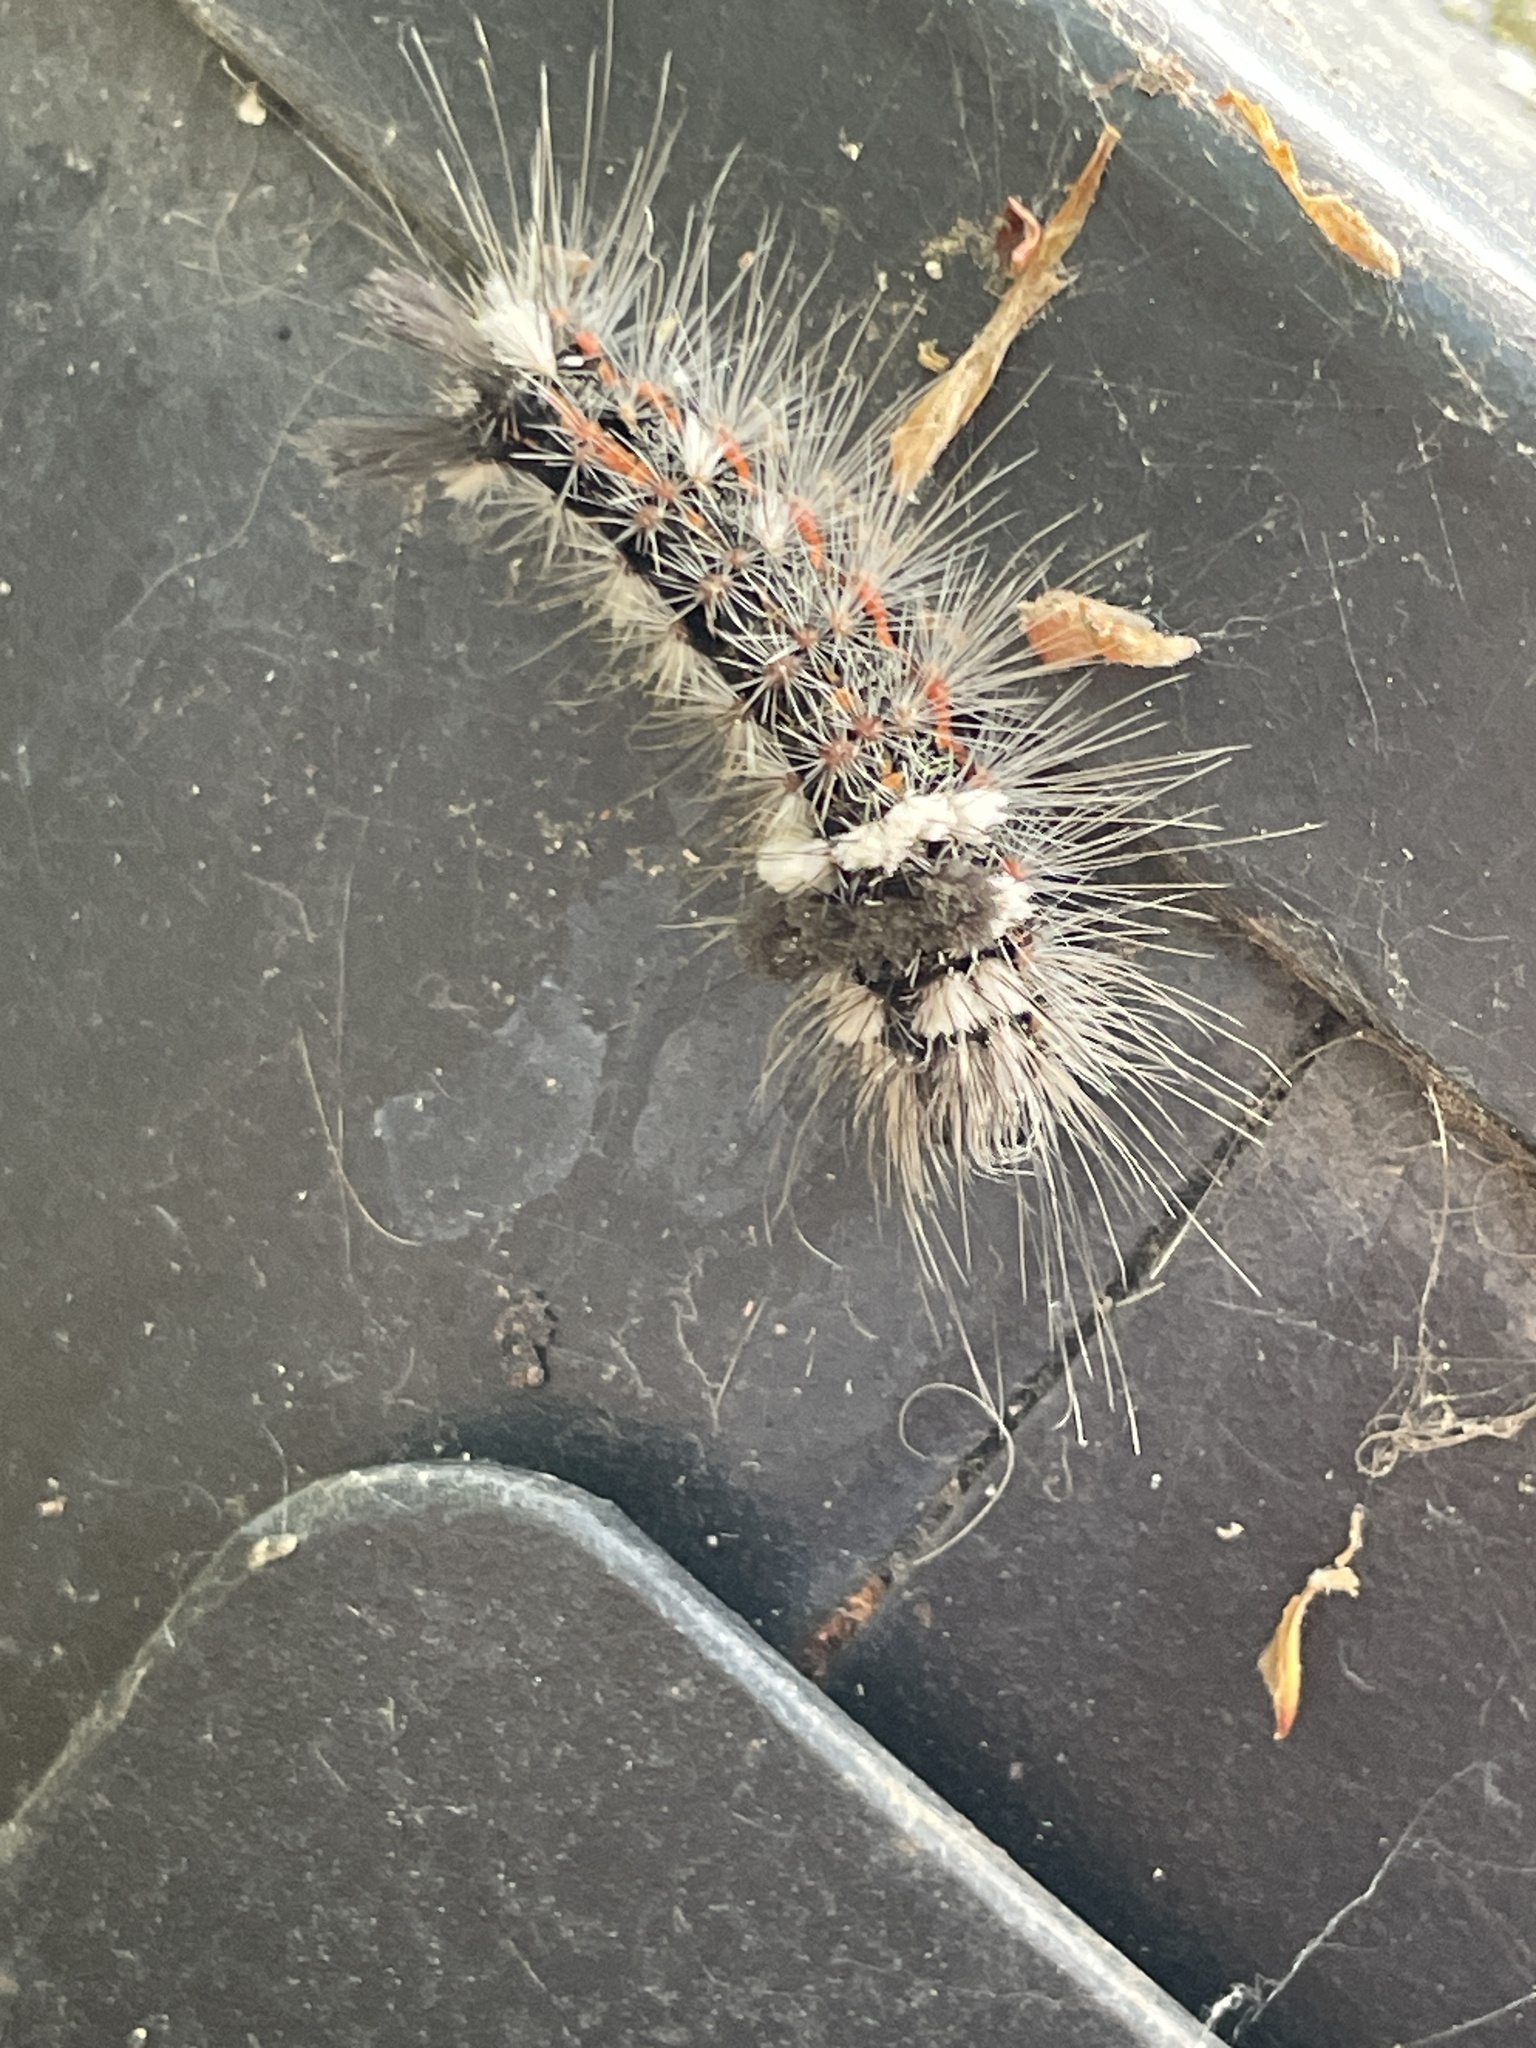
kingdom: Animalia
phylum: Arthropoda
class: Insecta
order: Lepidoptera
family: Noctuidae
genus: Acronicta
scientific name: Acronicta impleta
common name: Powdered dagger
